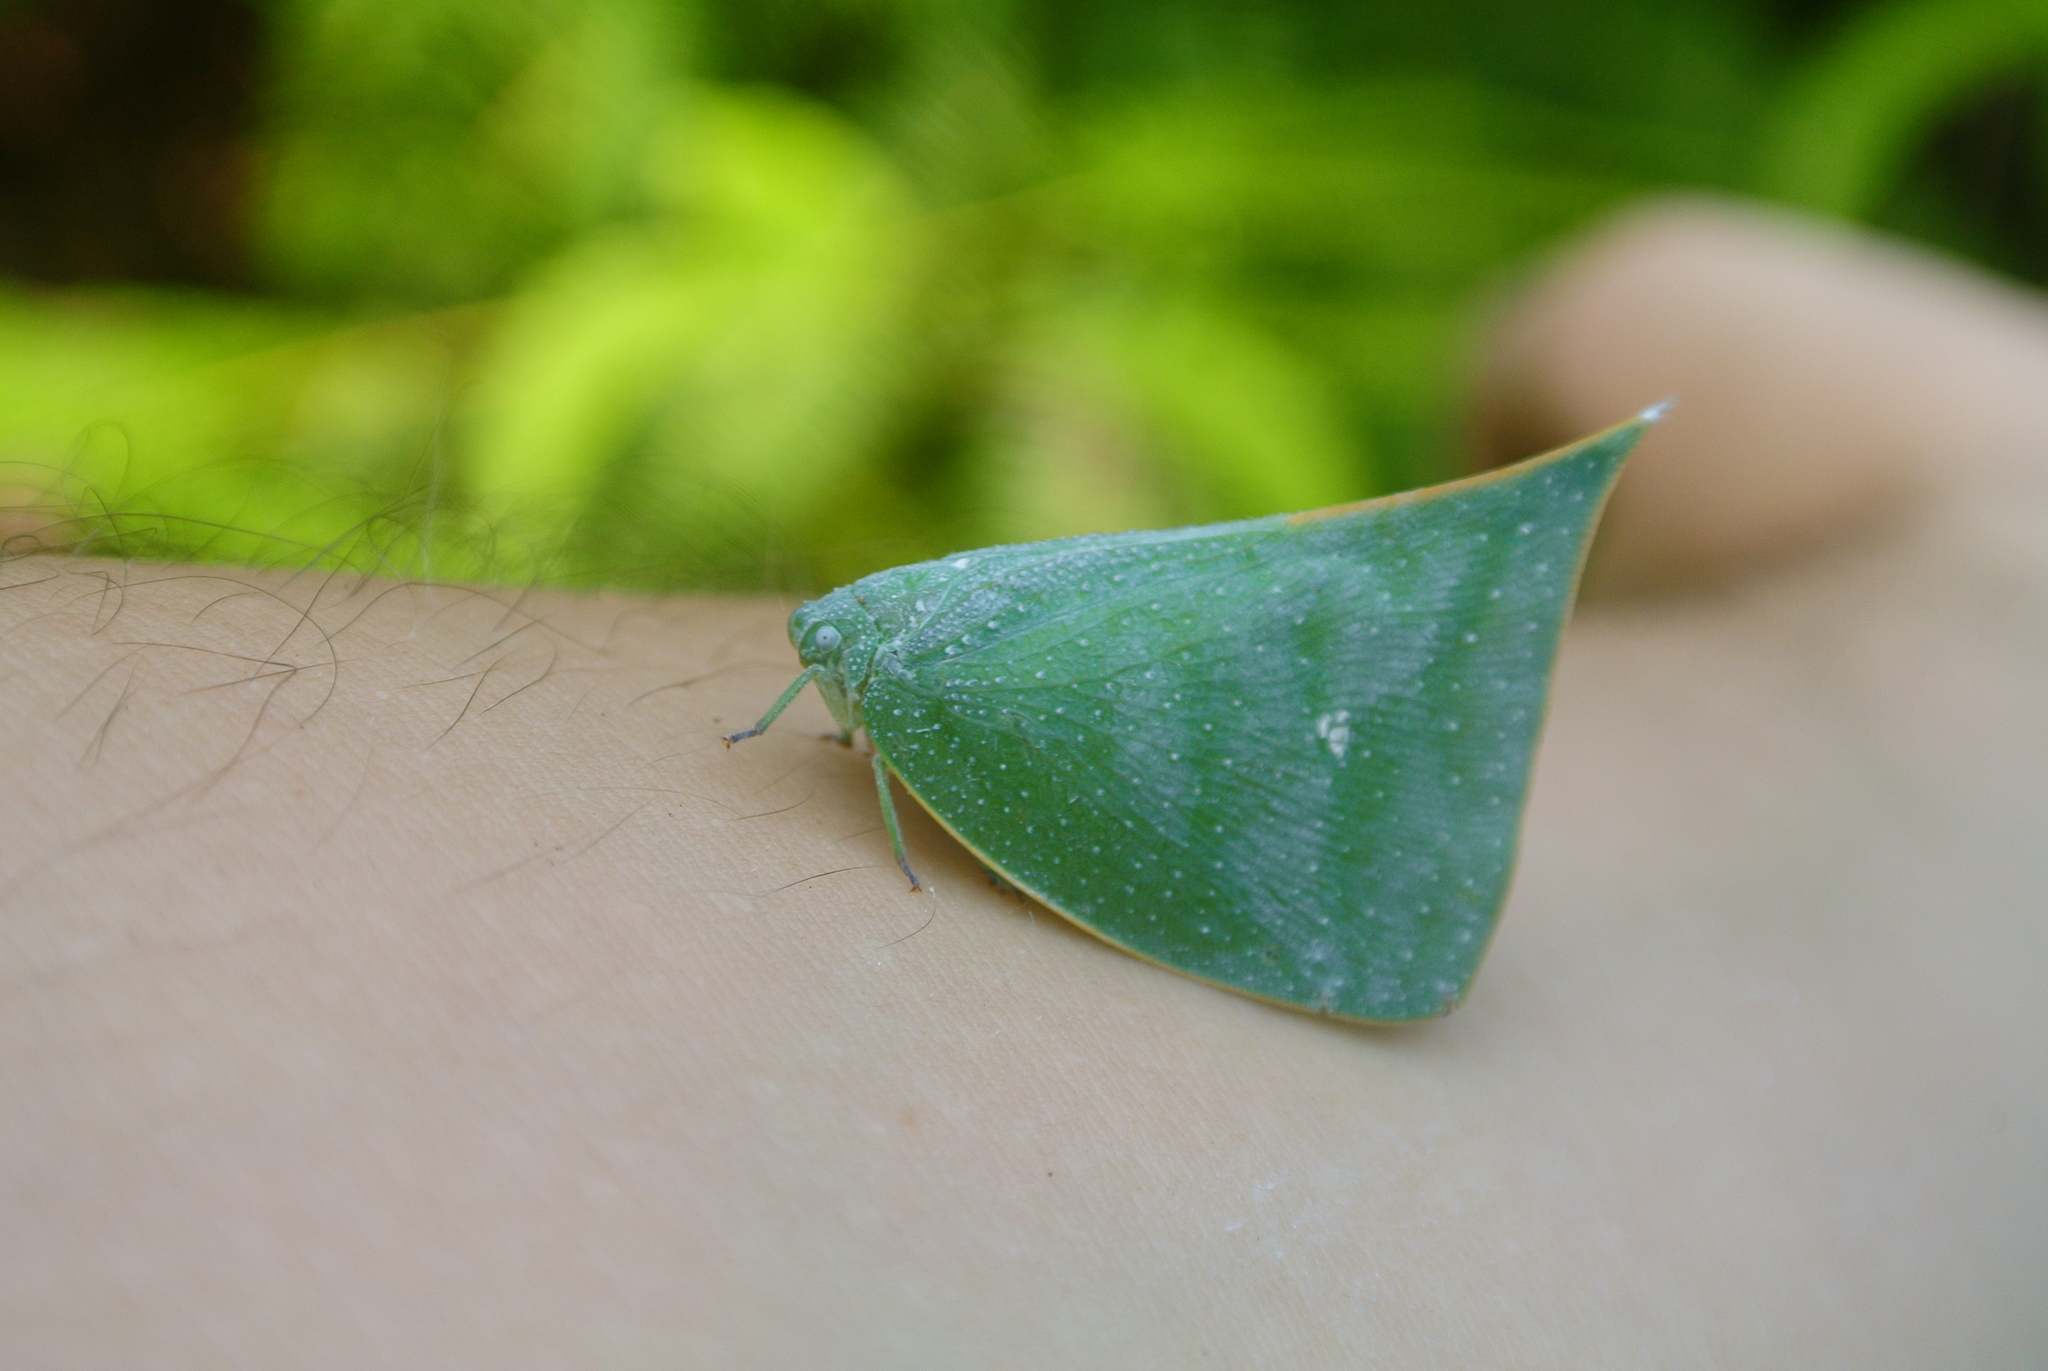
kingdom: Animalia
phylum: Arthropoda
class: Insecta
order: Hemiptera
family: Flatidae
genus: Colobesthes
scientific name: Colobesthes falcata
